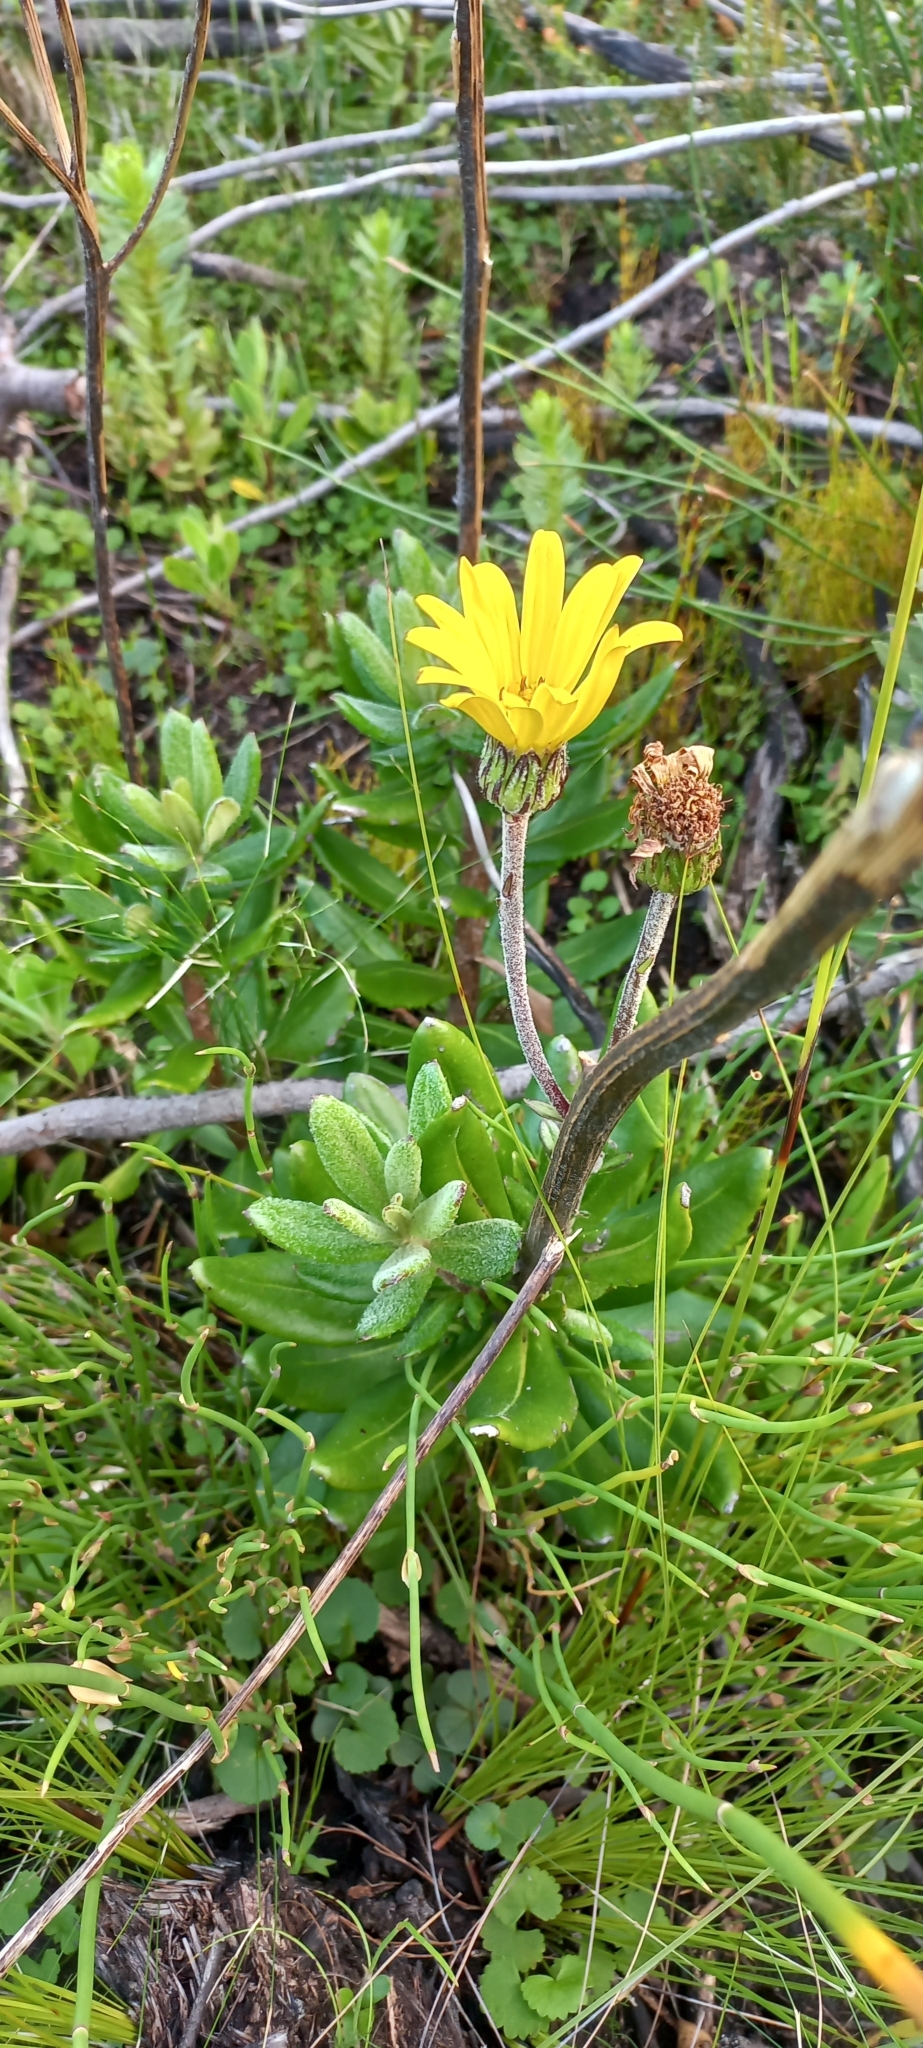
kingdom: Plantae
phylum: Tracheophyta
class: Magnoliopsida
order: Asterales
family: Asteraceae
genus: Capelio
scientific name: Capelio caledonica
